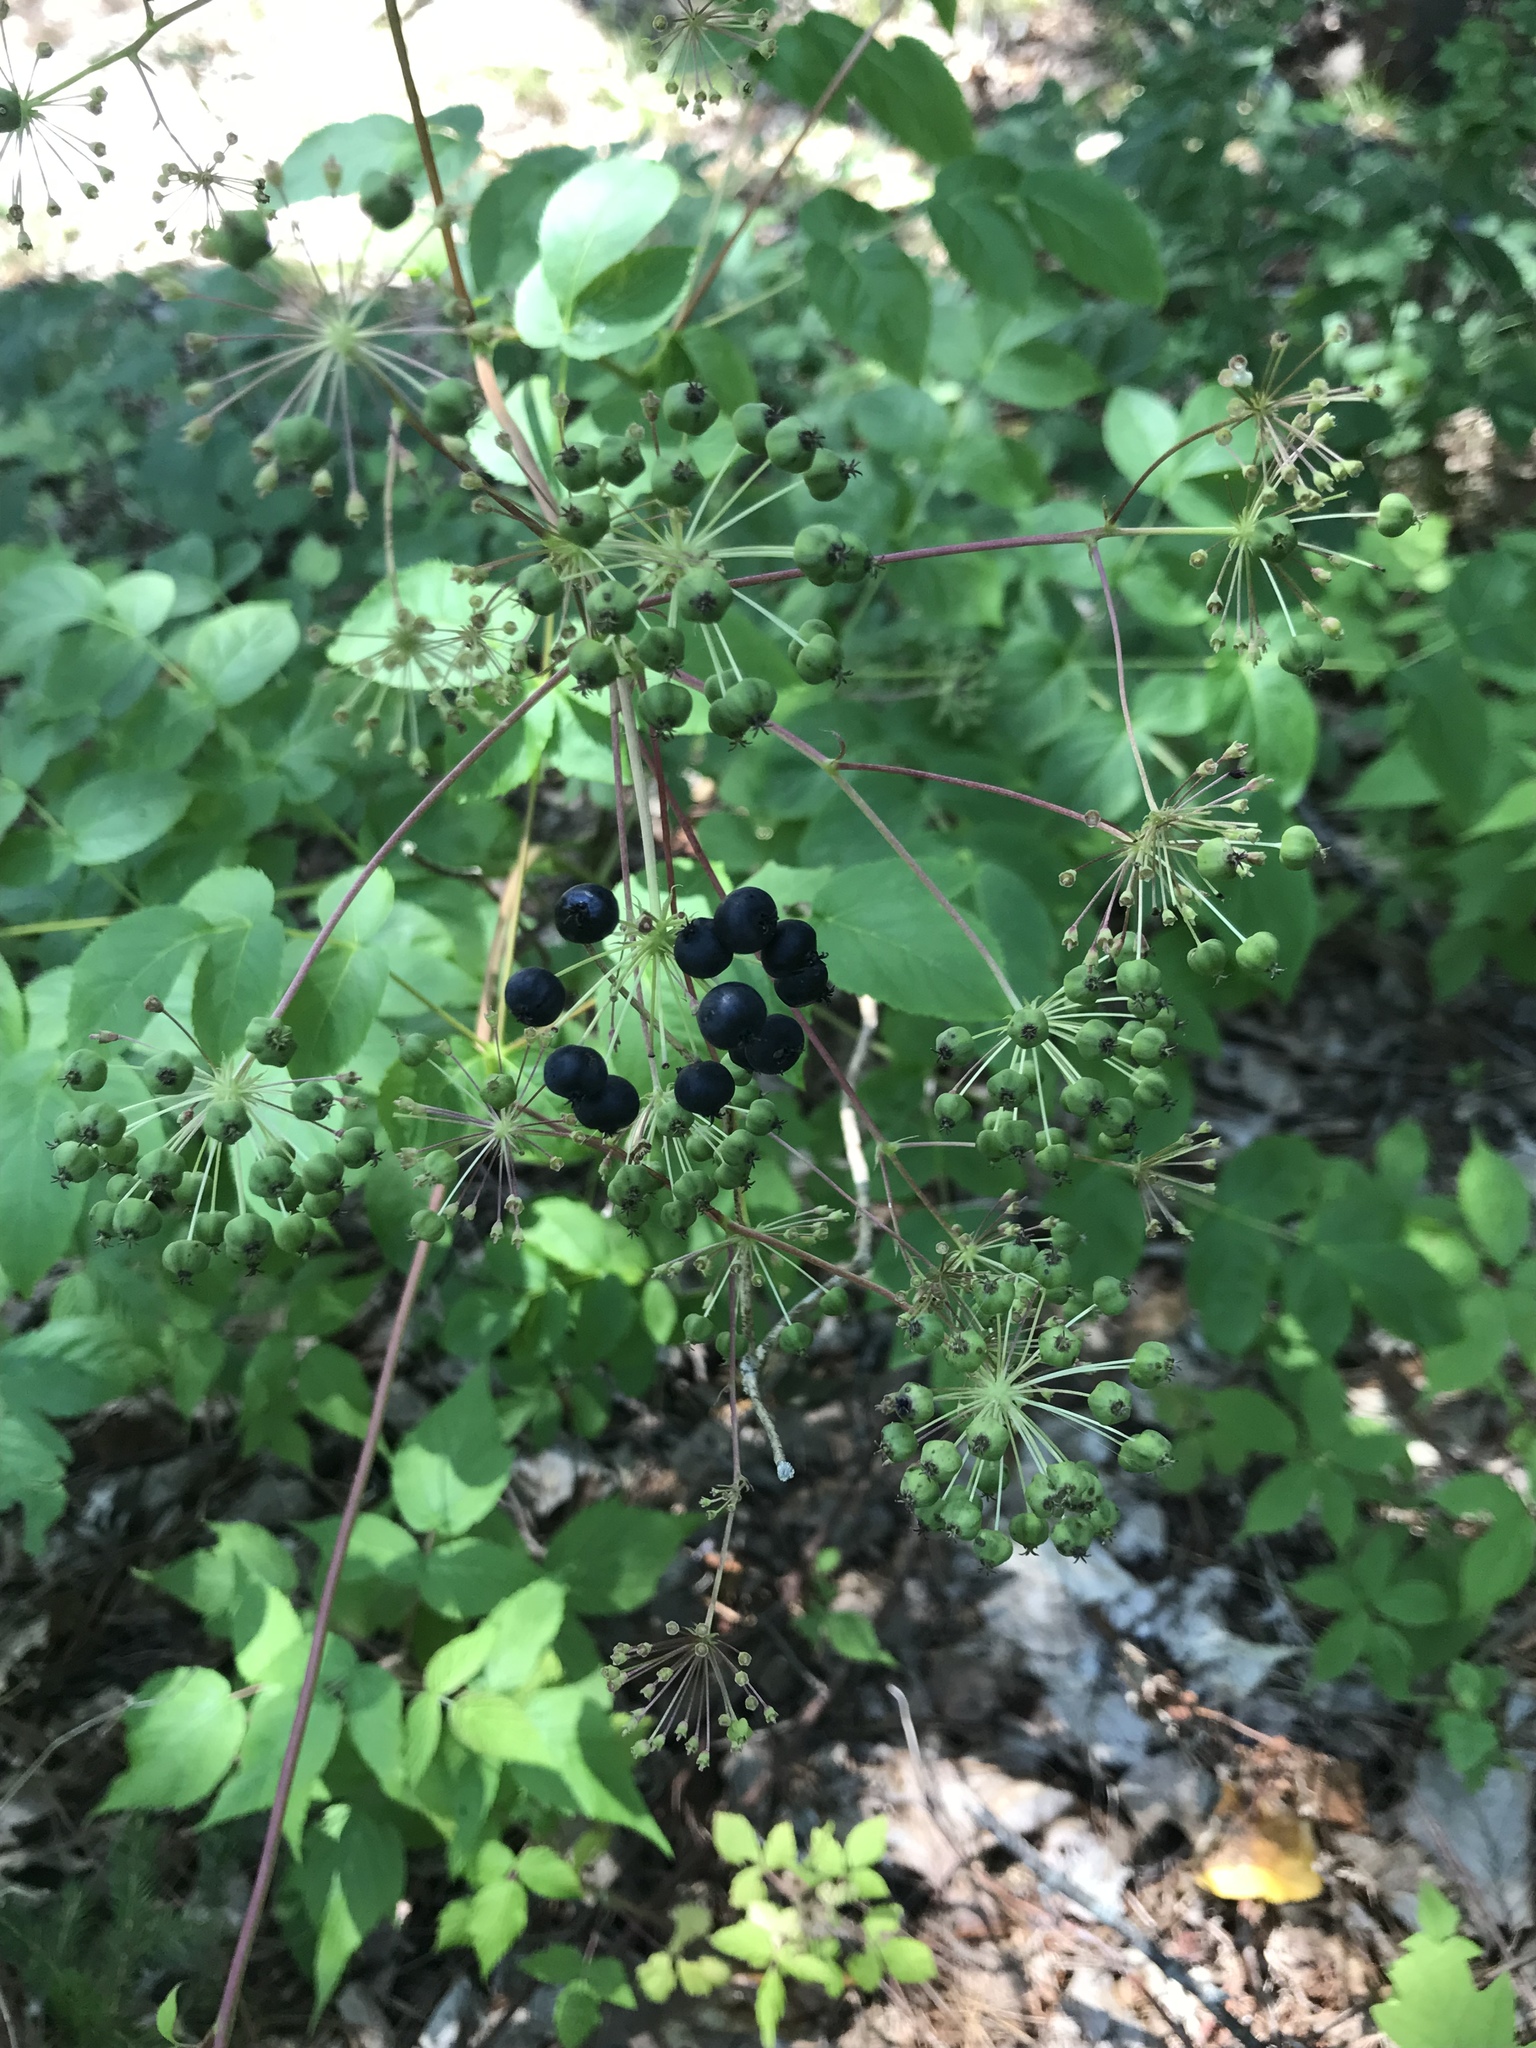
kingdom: Plantae
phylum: Tracheophyta
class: Magnoliopsida
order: Apiales
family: Araliaceae
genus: Aralia
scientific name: Aralia hispida
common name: Bristly sarsaparilla
